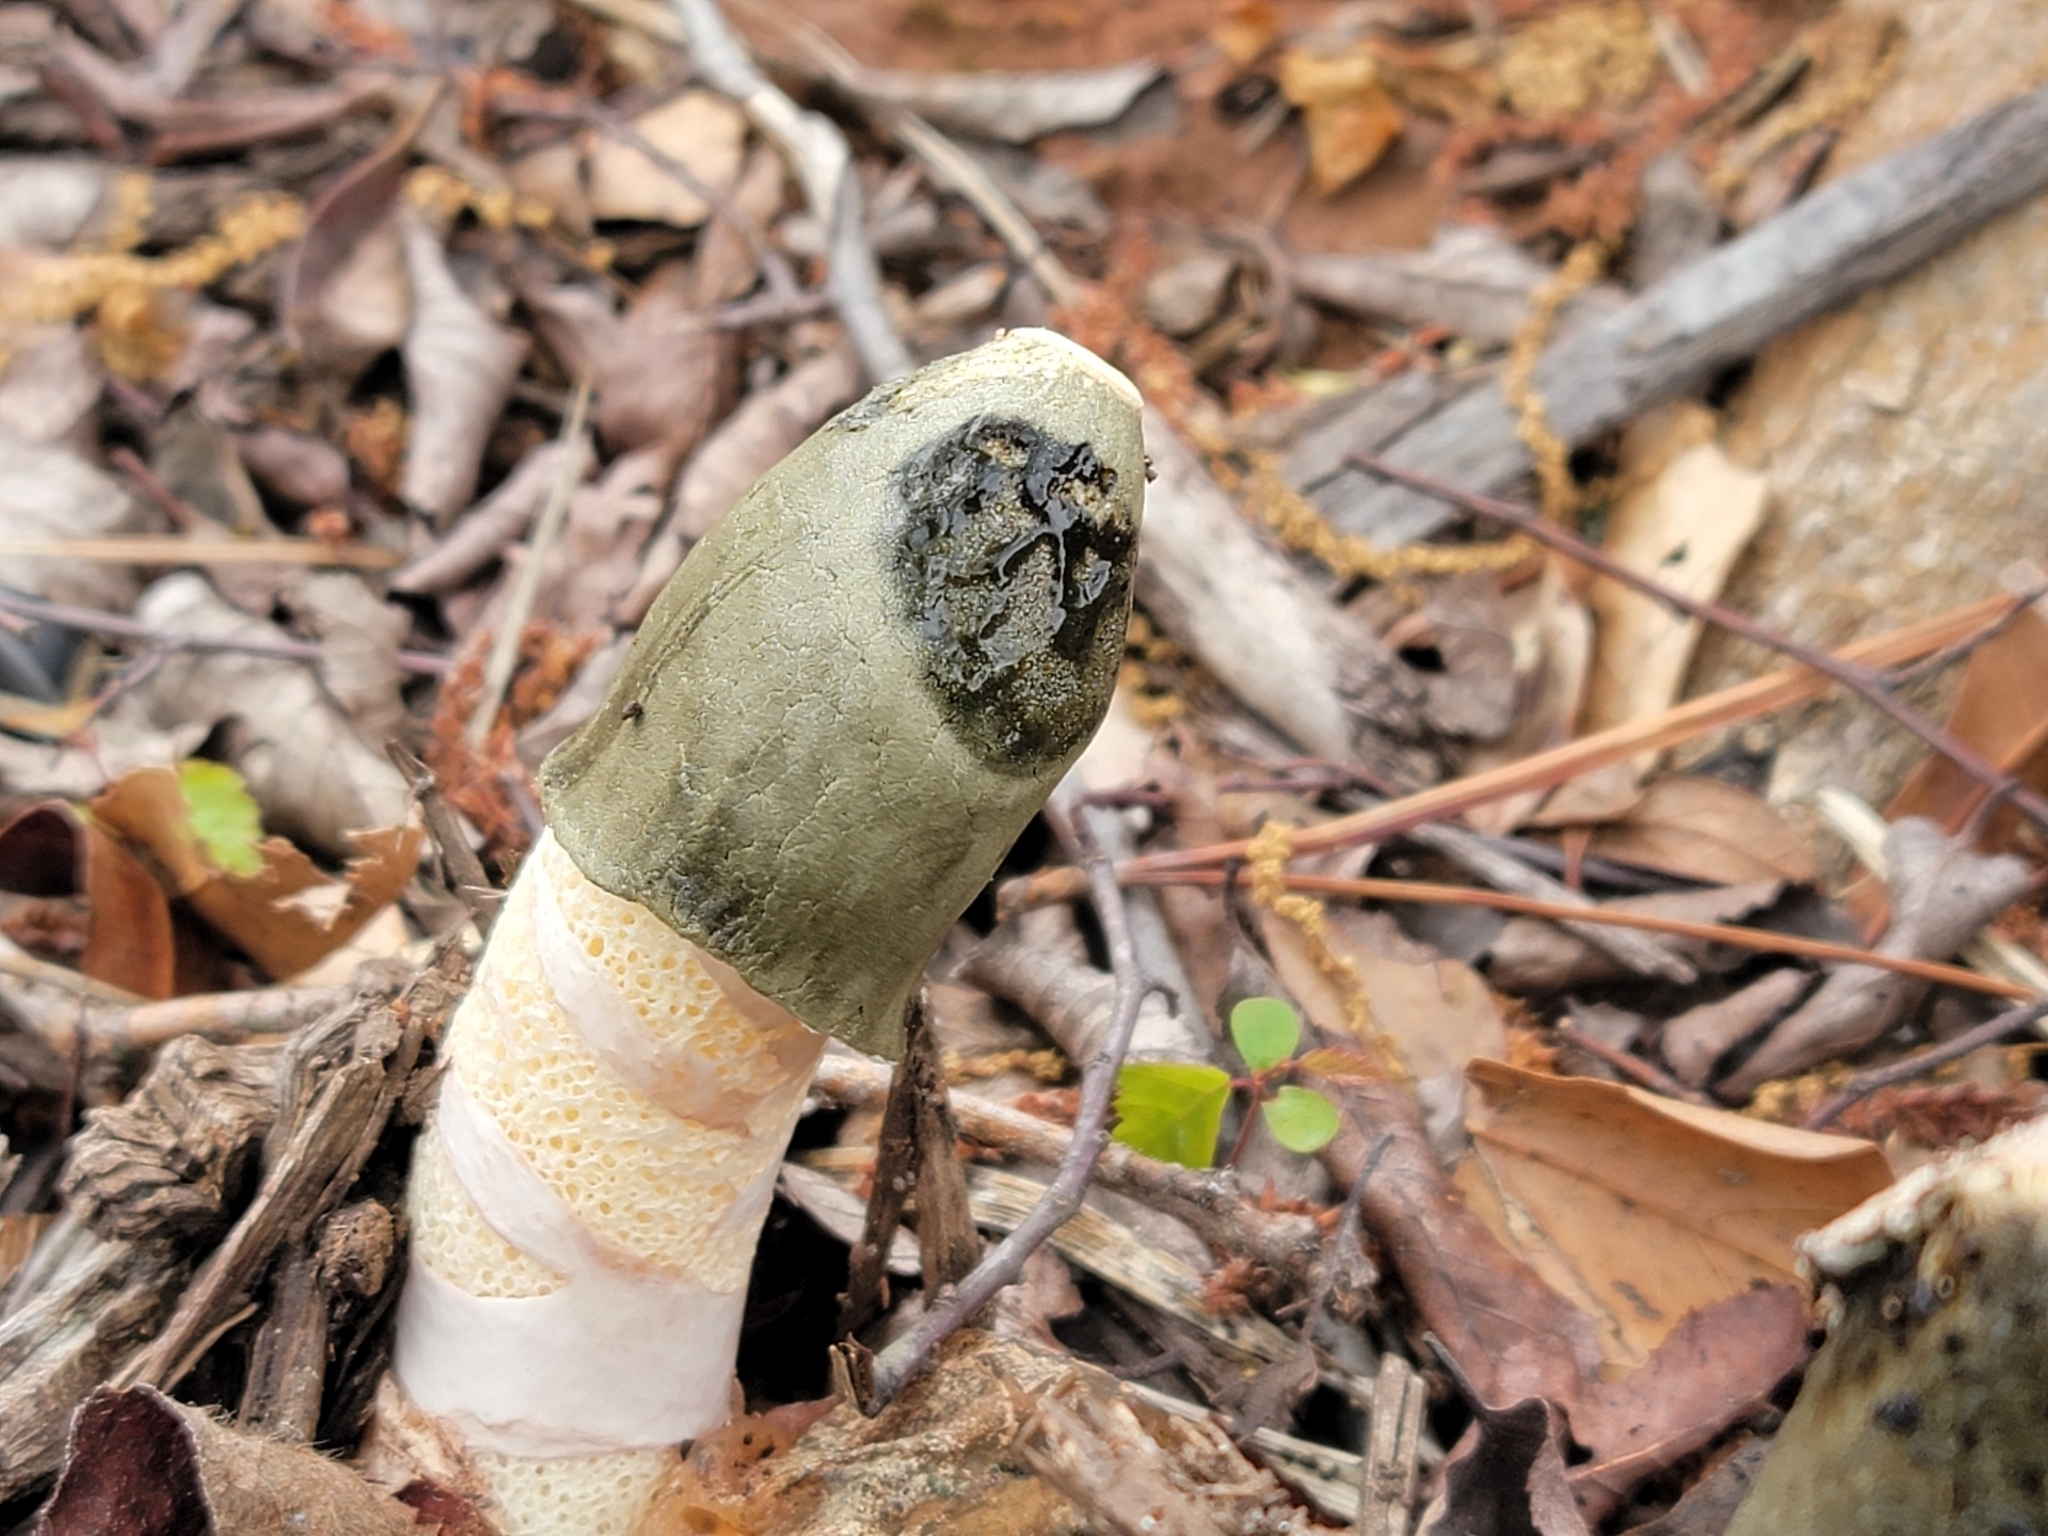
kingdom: Fungi
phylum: Basidiomycota
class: Agaricomycetes
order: Phallales
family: Phallaceae
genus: Phallus
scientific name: Phallus ravenelii
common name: Ravenel's stinkhorn
